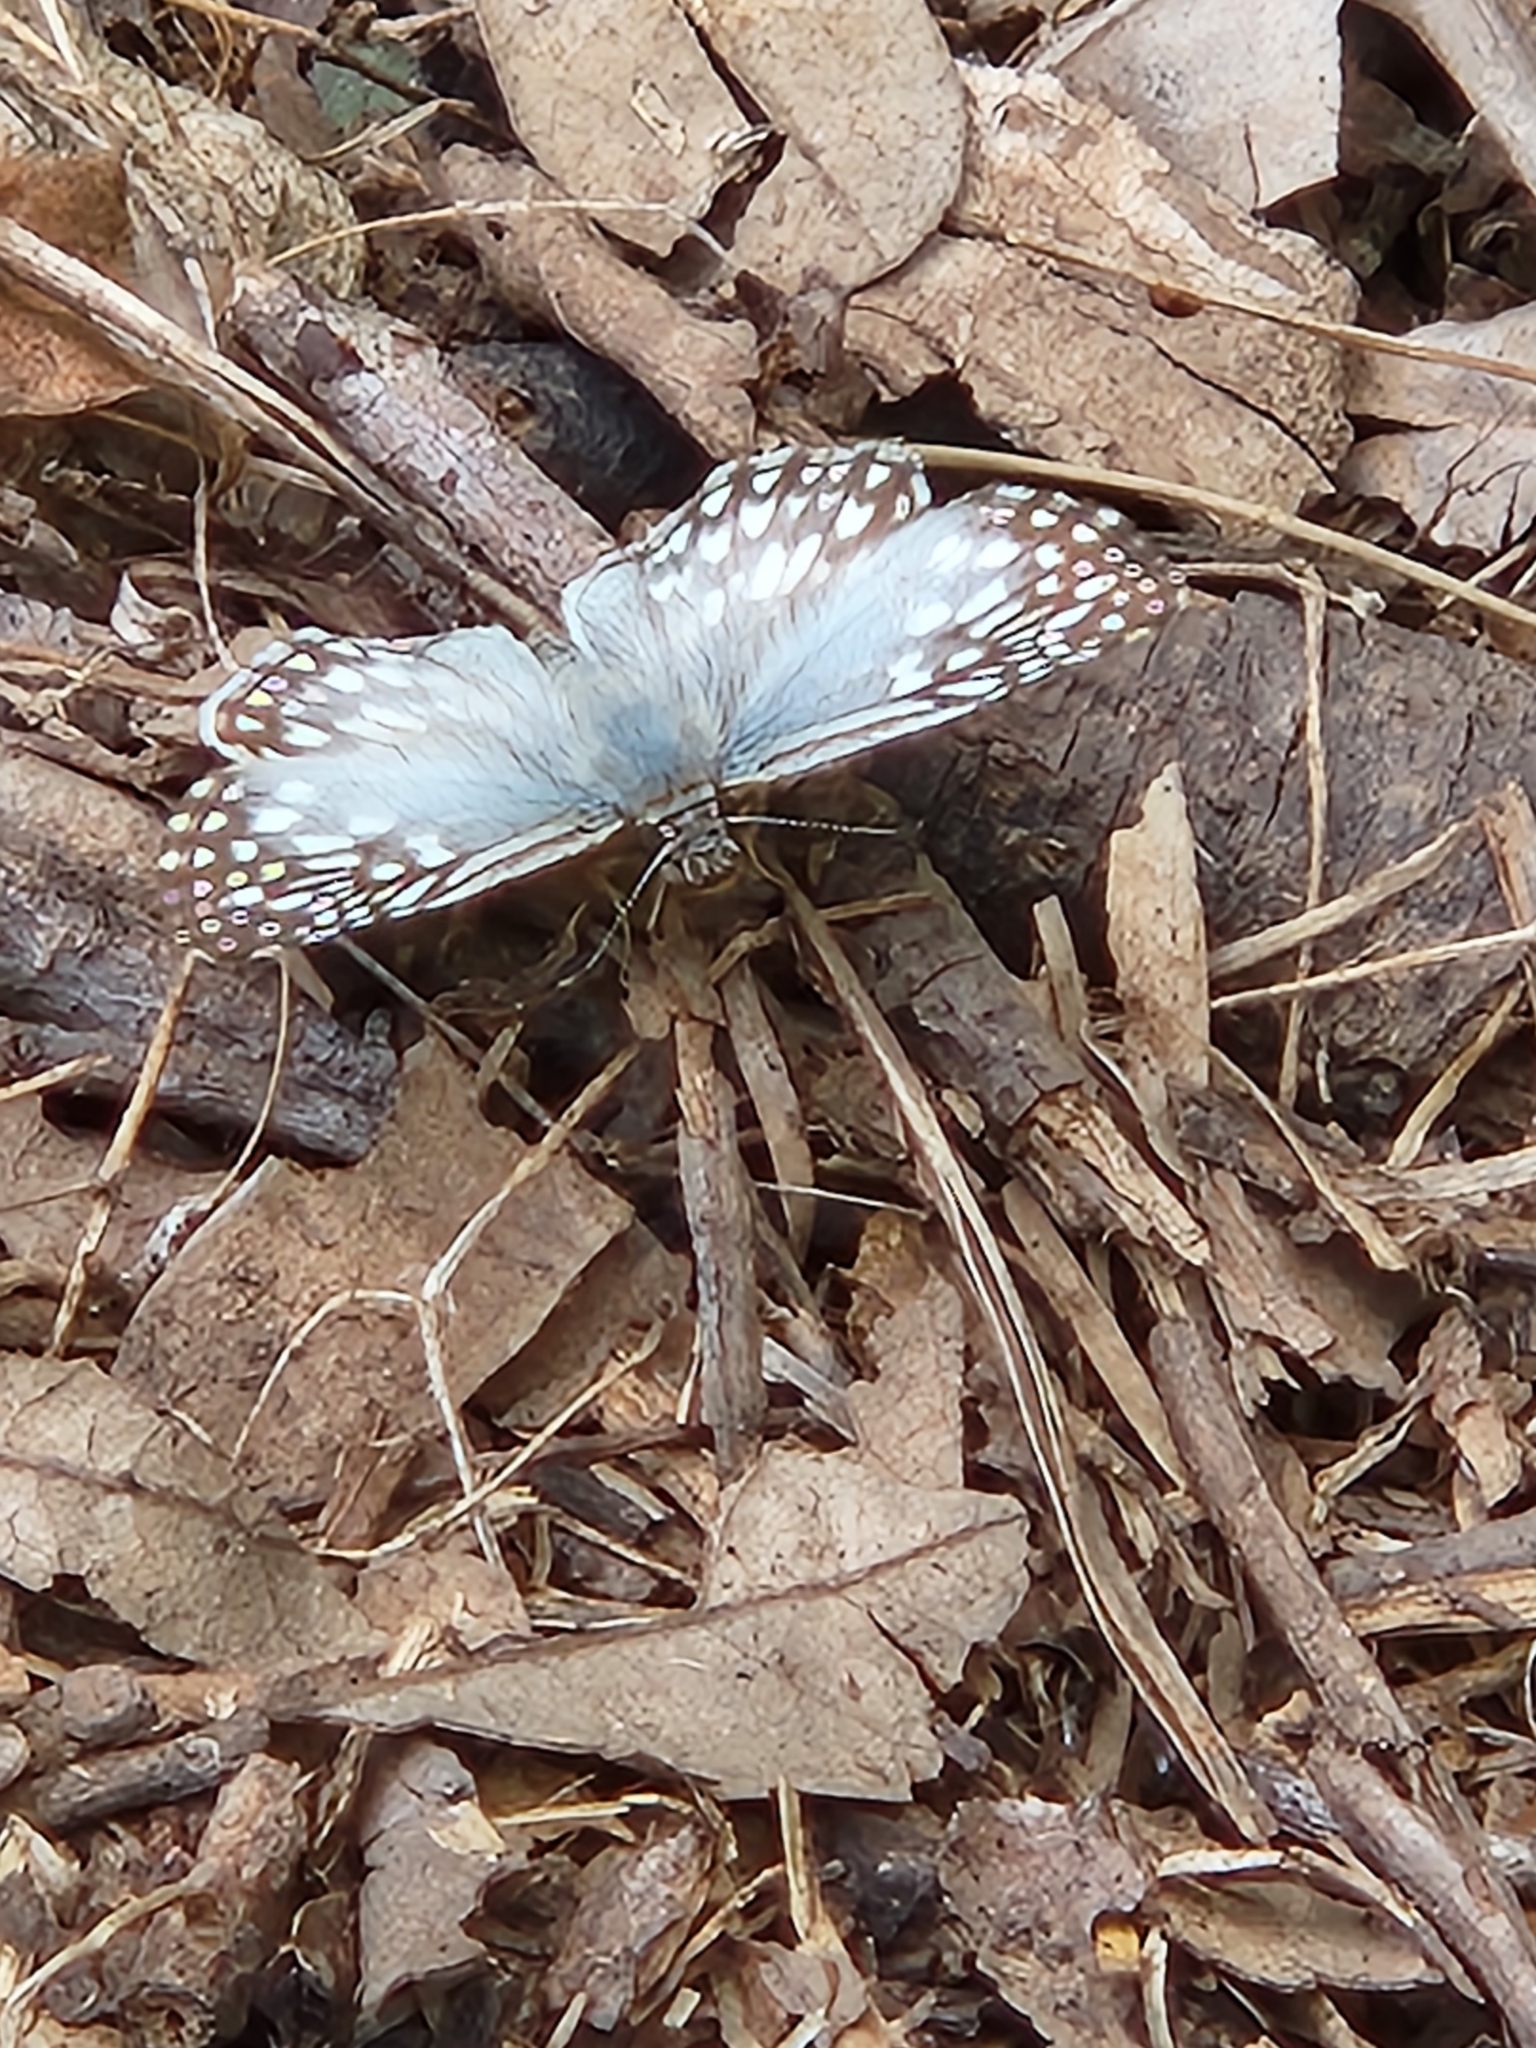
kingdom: Animalia
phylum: Arthropoda
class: Insecta
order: Lepidoptera
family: Hesperiidae
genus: Pyrgus
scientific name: Pyrgus oileus
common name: Tropical checkered-skipper
